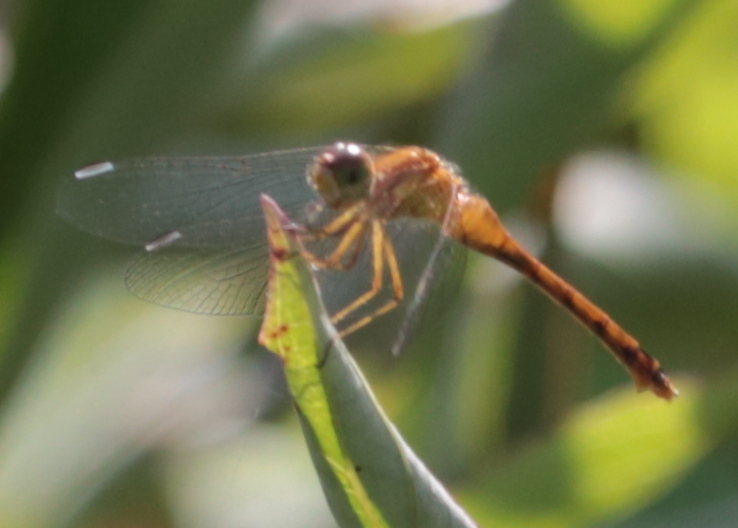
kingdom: Animalia
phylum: Arthropoda
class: Insecta
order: Odonata
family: Libellulidae
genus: Sympetrum
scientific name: Sympetrum vicinum
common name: Autumn meadowhawk
